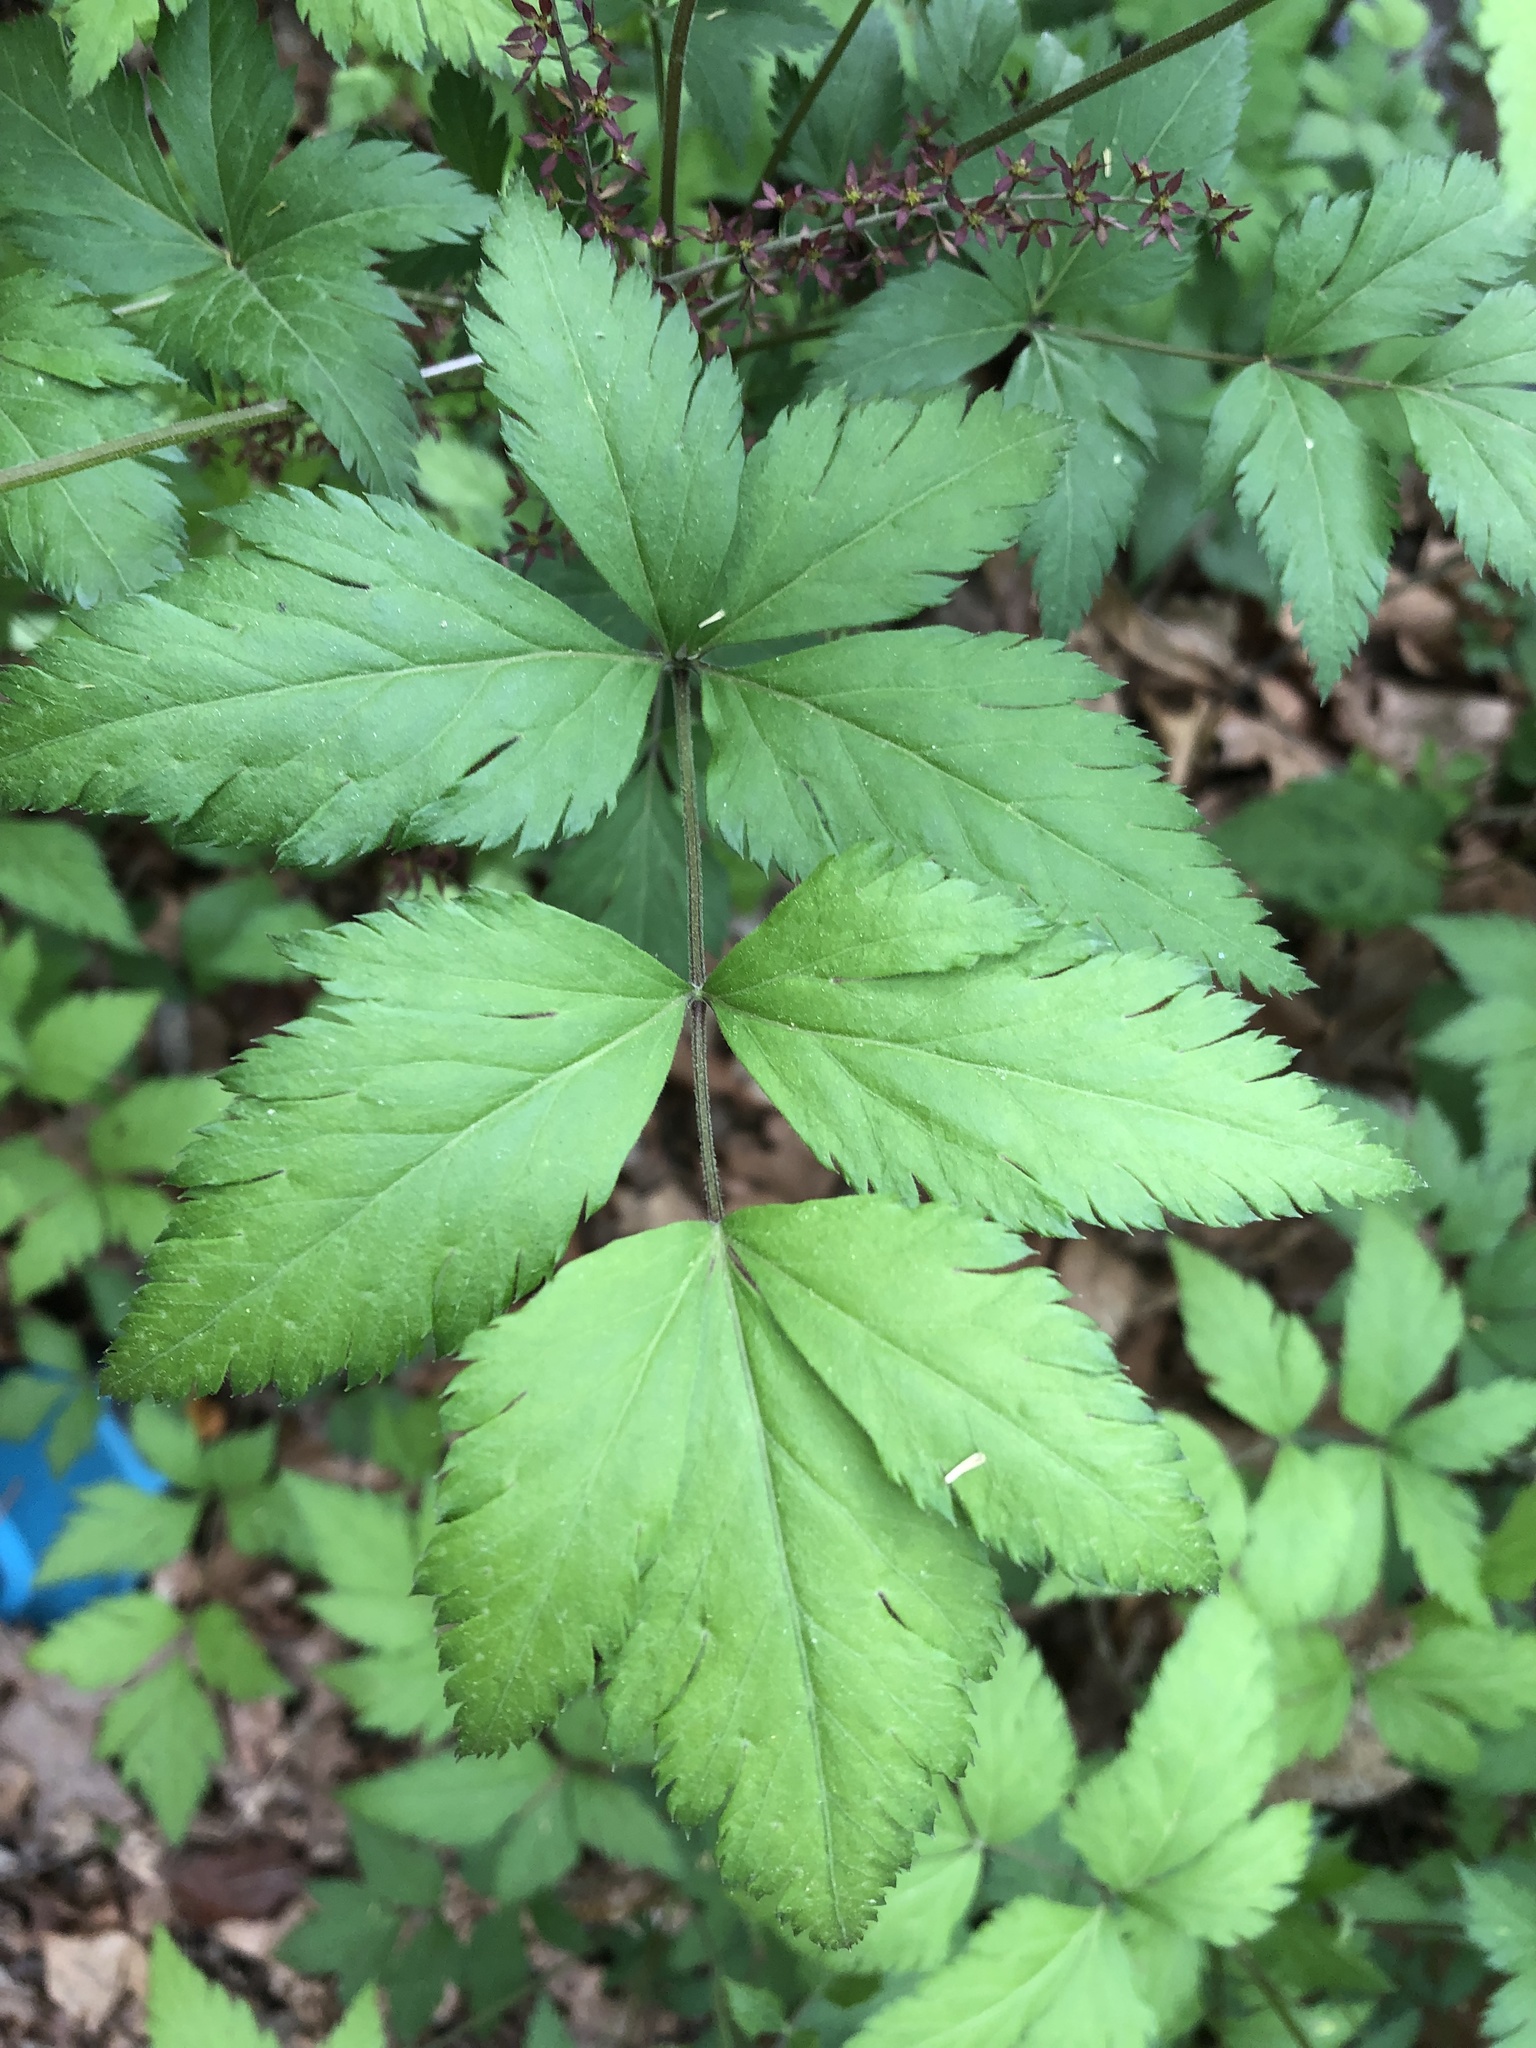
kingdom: Plantae
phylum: Tracheophyta
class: Magnoliopsida
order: Ranunculales
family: Ranunculaceae
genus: Xanthorhiza
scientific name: Xanthorhiza simplicissima
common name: Yellowroot
